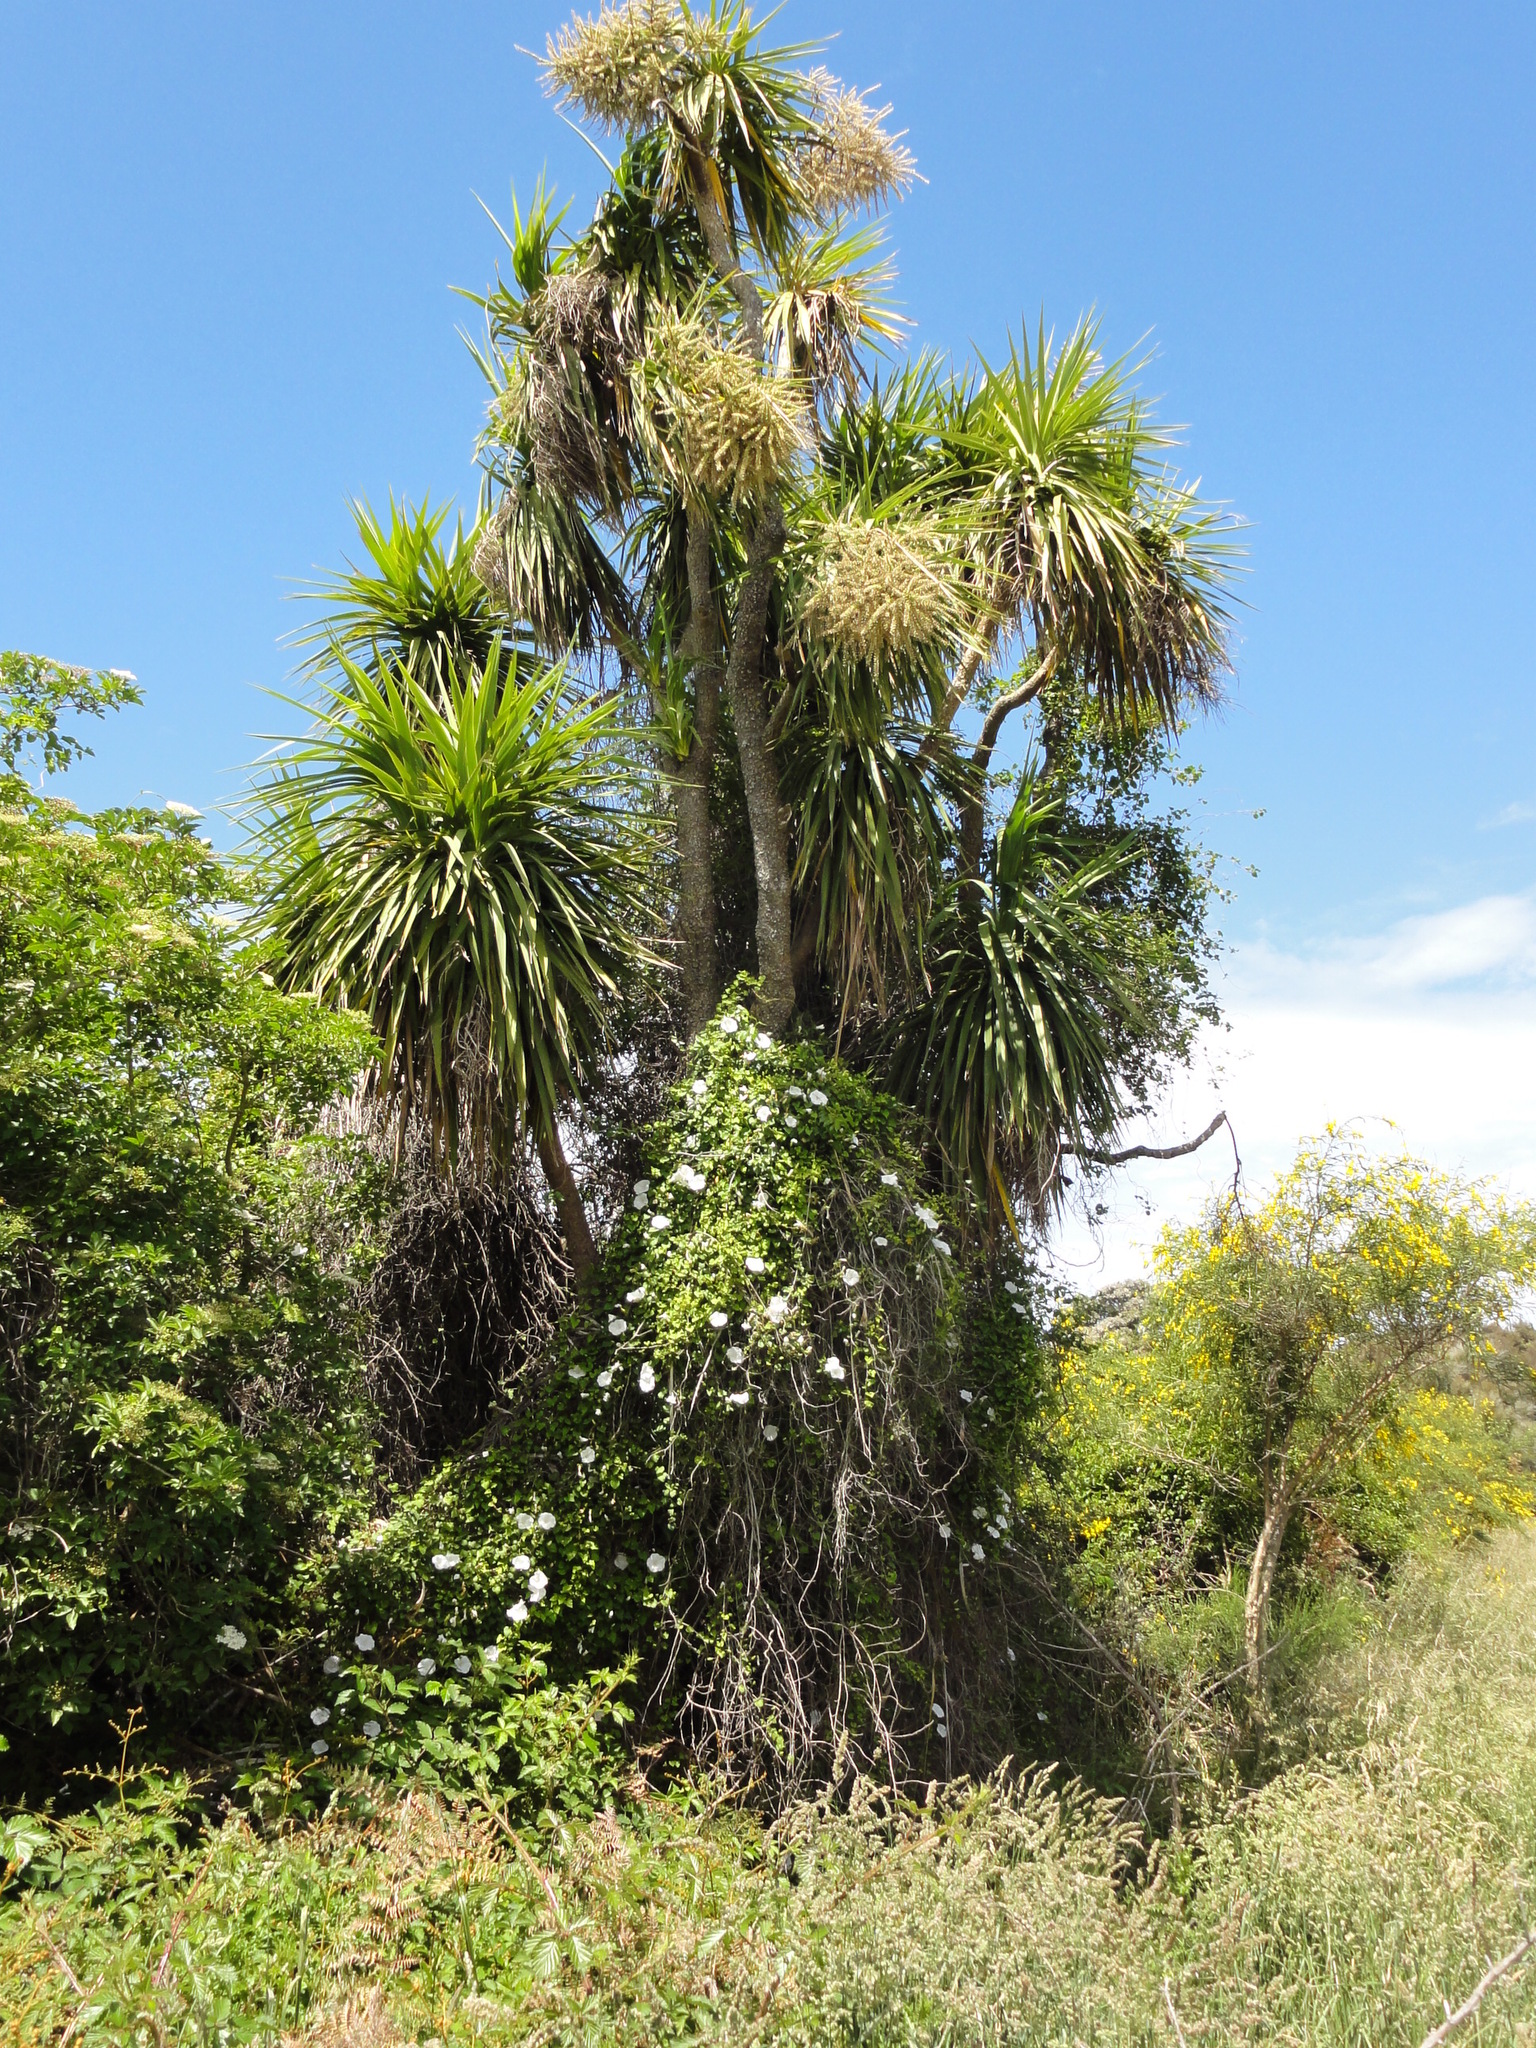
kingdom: Plantae
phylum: Tracheophyta
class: Magnoliopsida
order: Solanales
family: Convolvulaceae
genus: Calystegia
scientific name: Calystegia tuguriorum
